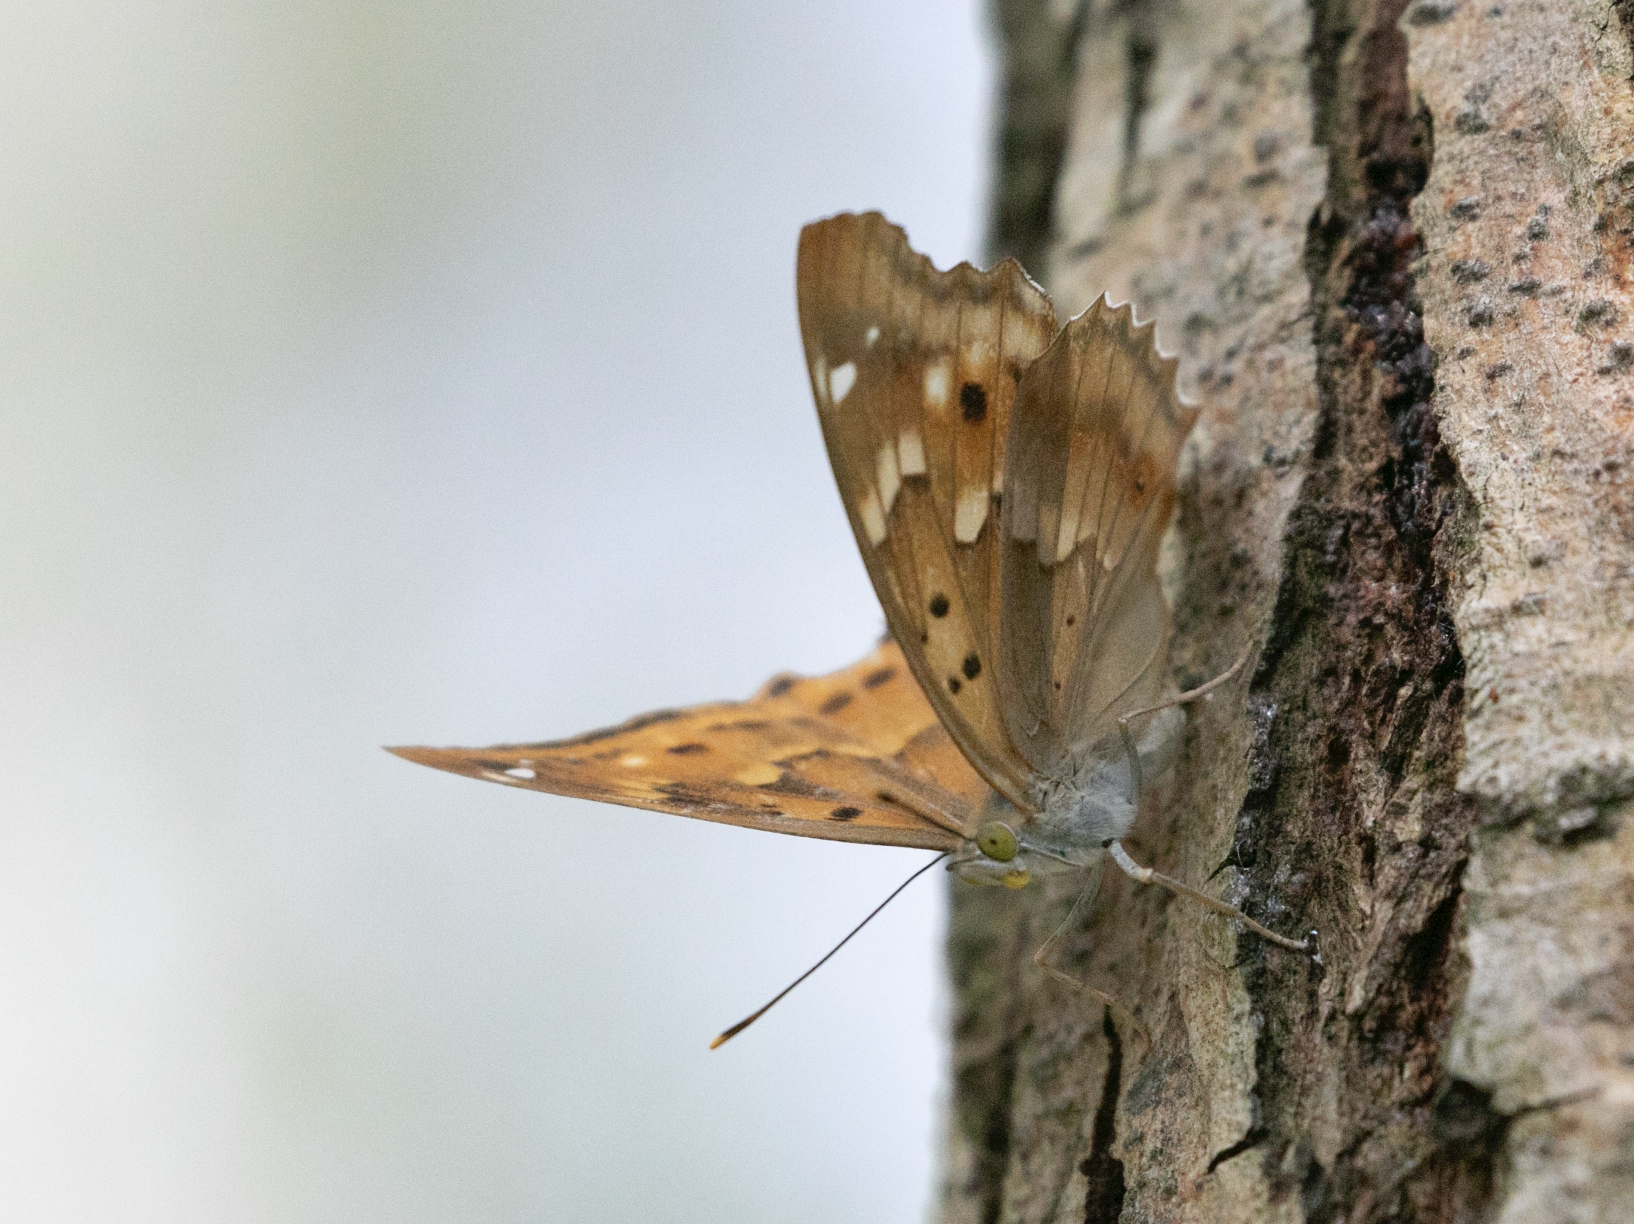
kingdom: Animalia
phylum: Arthropoda
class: Insecta
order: Lepidoptera
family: Nymphalidae
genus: Apatura
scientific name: Apatura ilia
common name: Lesser purple emperor
